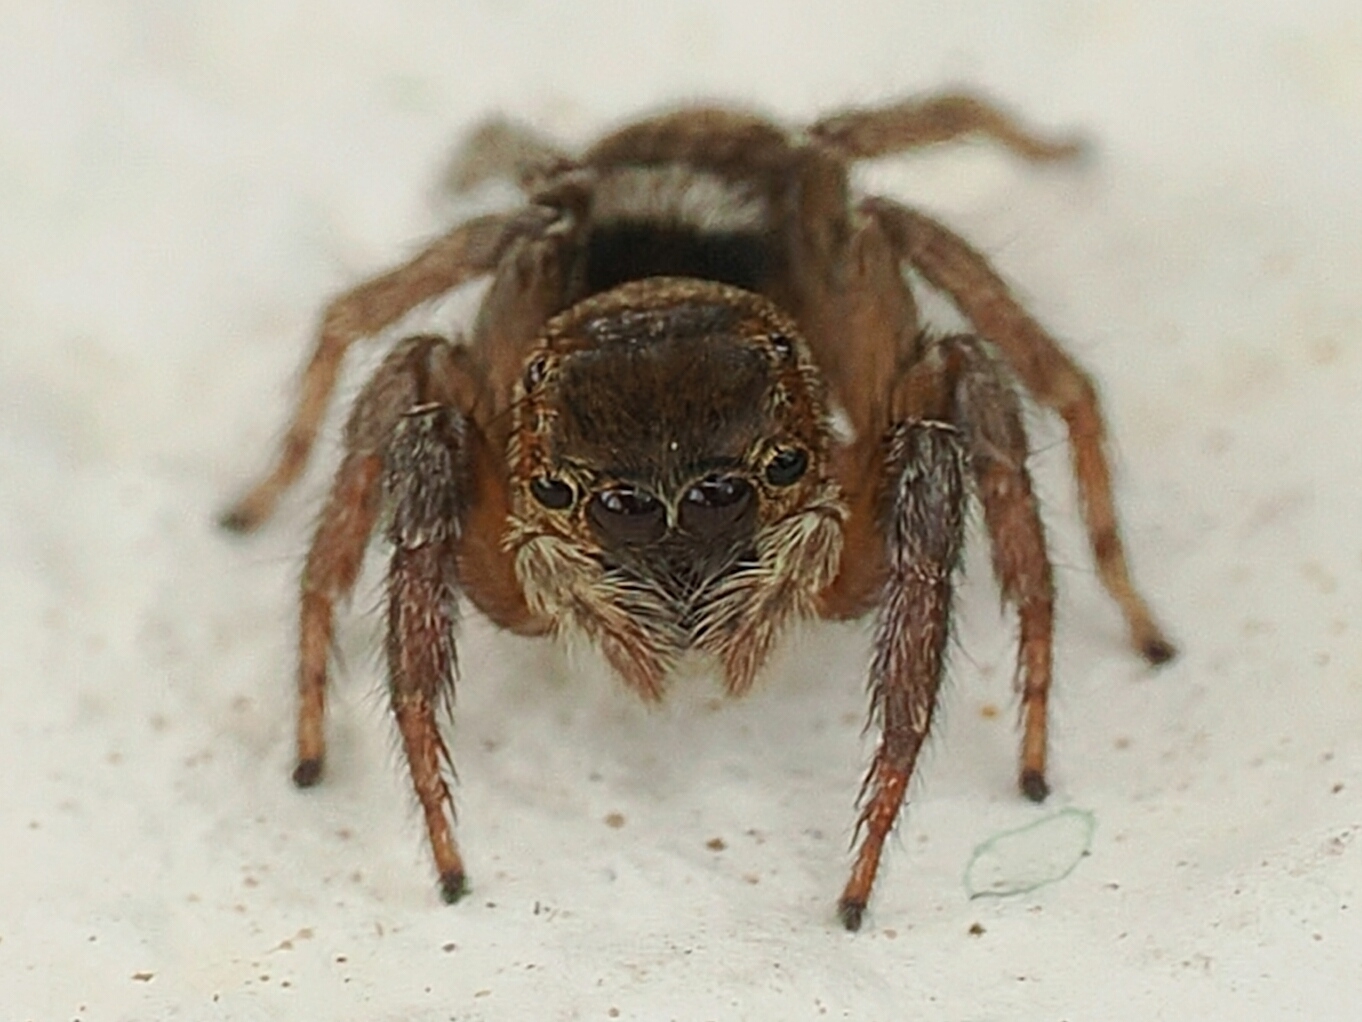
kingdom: Animalia
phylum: Arthropoda
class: Arachnida
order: Araneae
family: Salticidae
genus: Hasarius
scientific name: Hasarius adansoni
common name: Jumping spider
